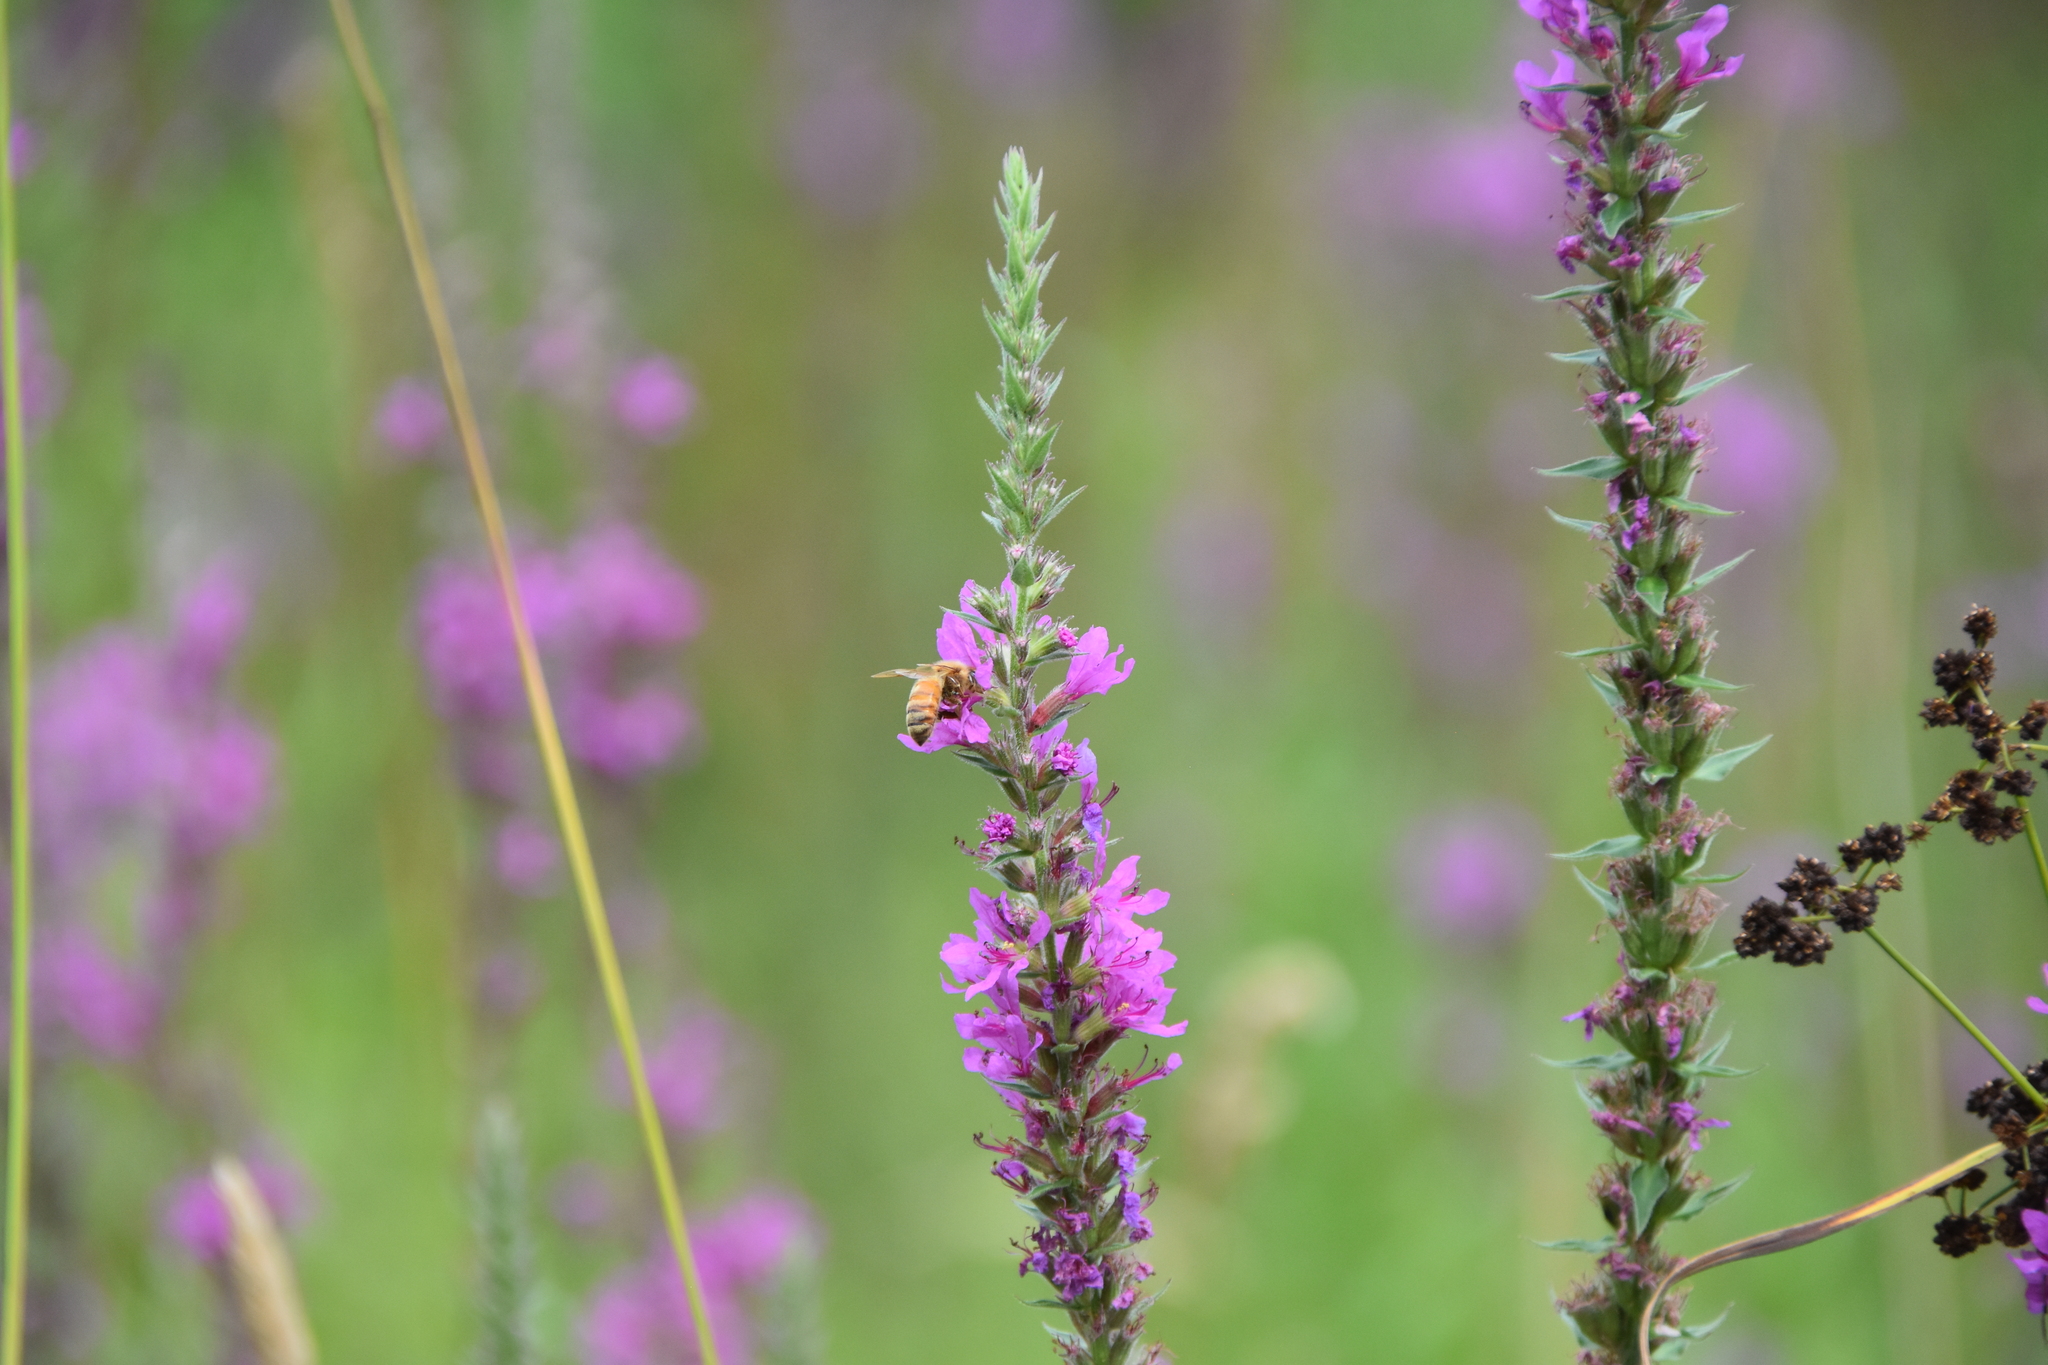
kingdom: Animalia
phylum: Arthropoda
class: Insecta
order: Hymenoptera
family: Apidae
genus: Apis
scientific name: Apis mellifera
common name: Honey bee
